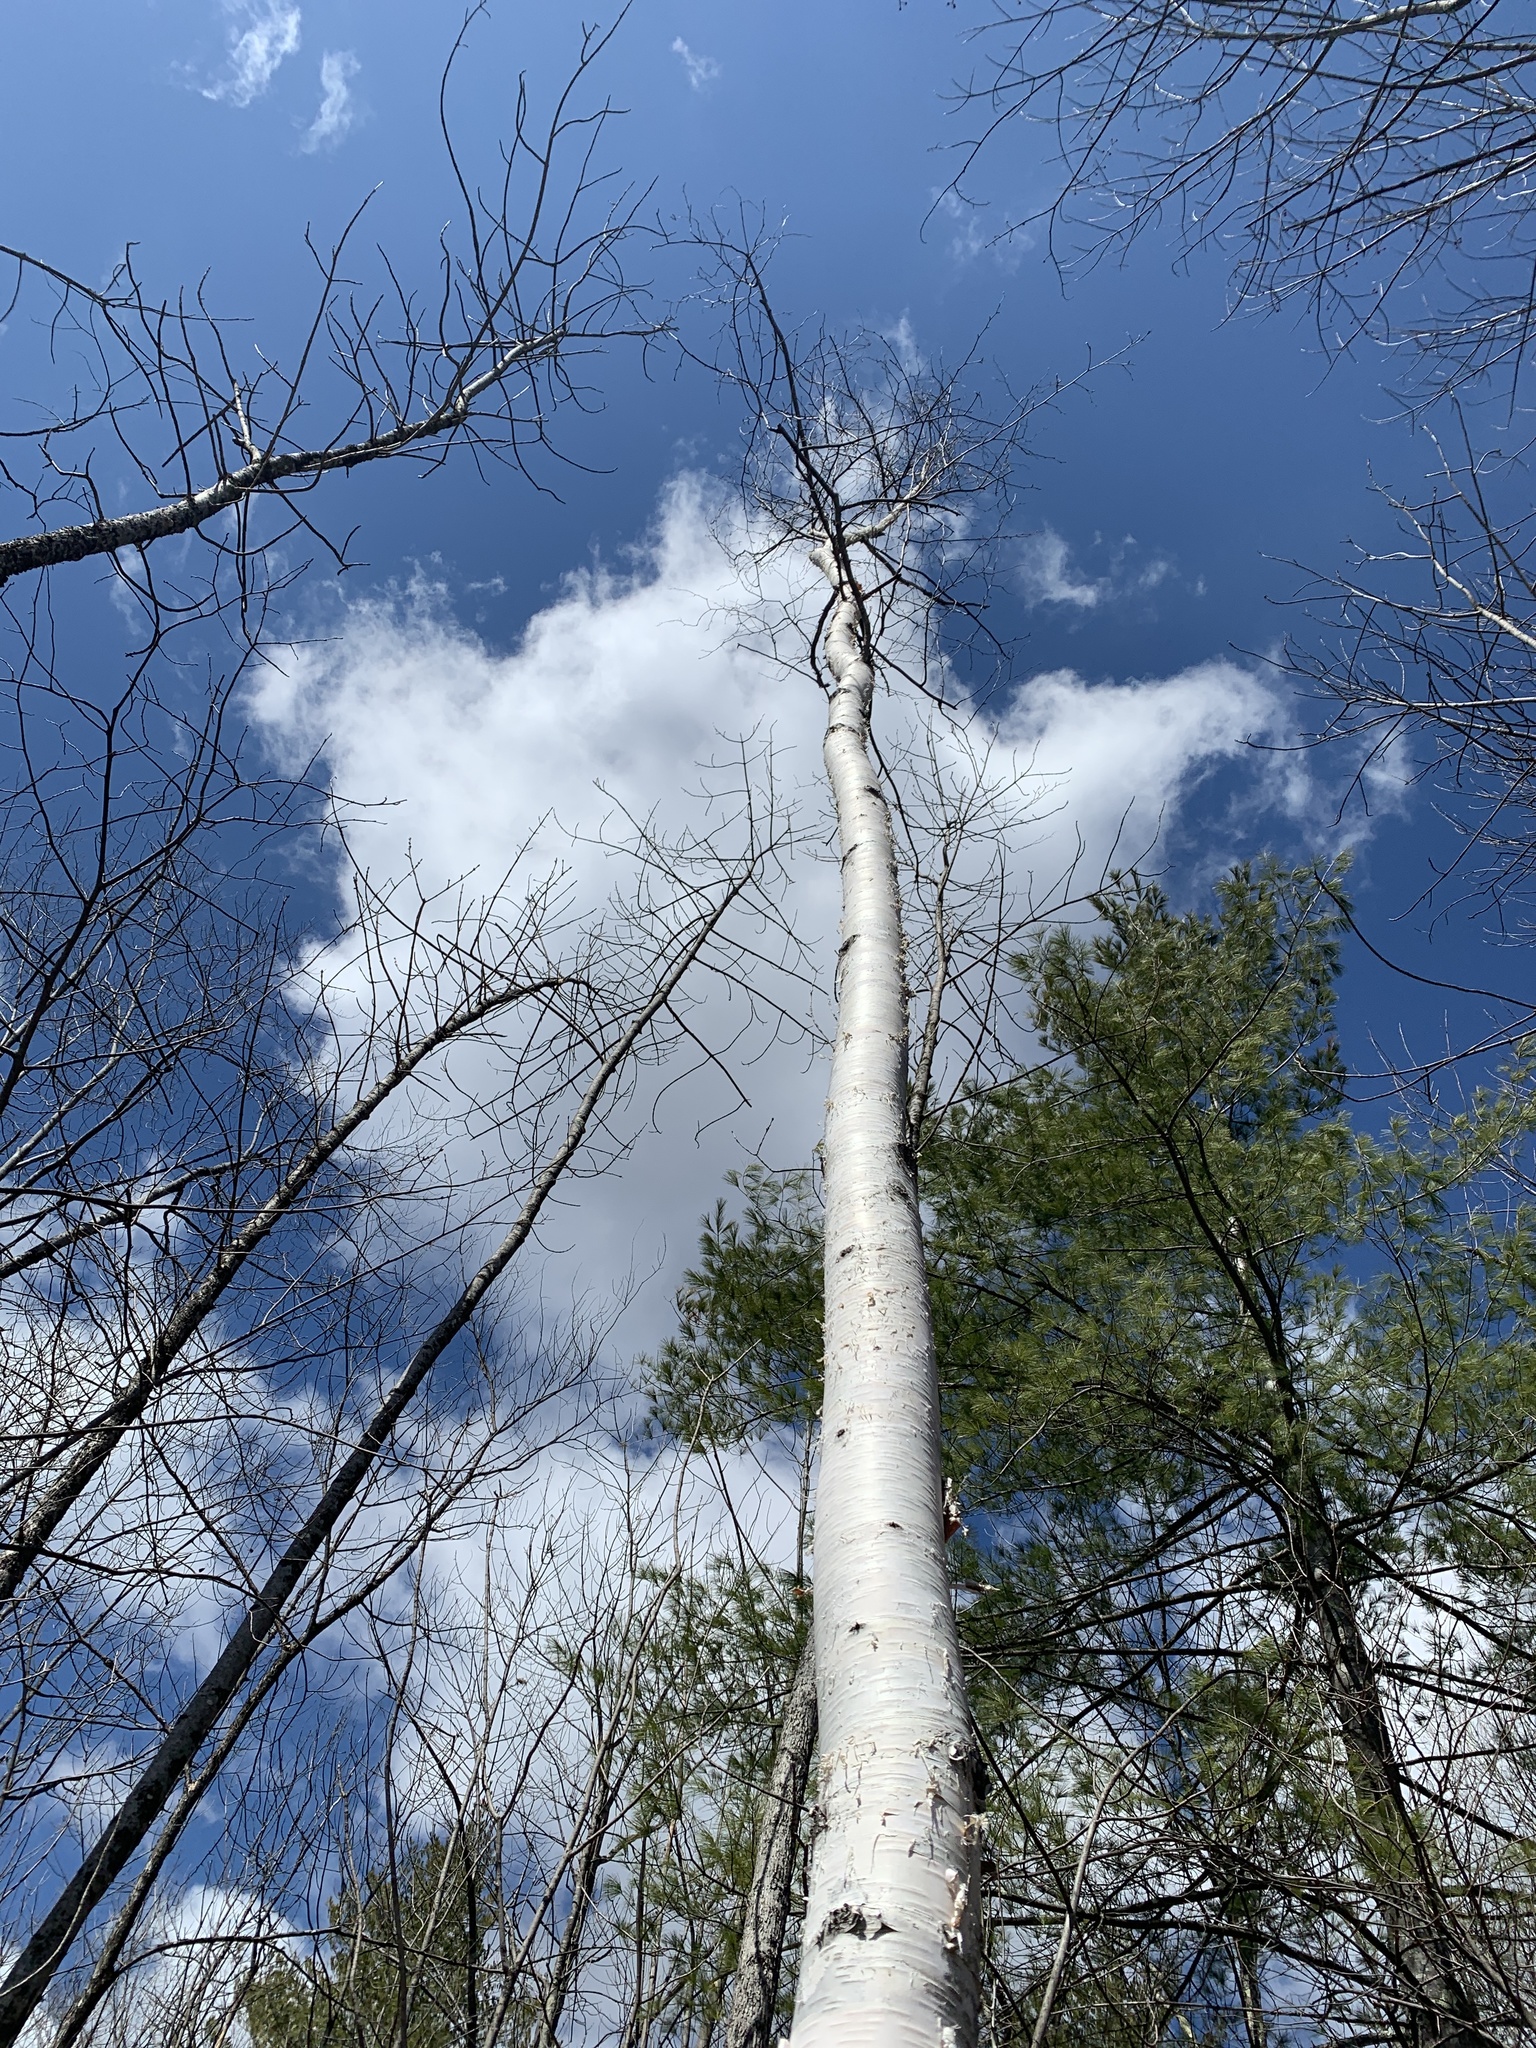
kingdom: Plantae
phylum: Tracheophyta
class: Magnoliopsida
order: Fagales
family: Betulaceae
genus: Betula
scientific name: Betula papyrifera
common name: Paper birch
